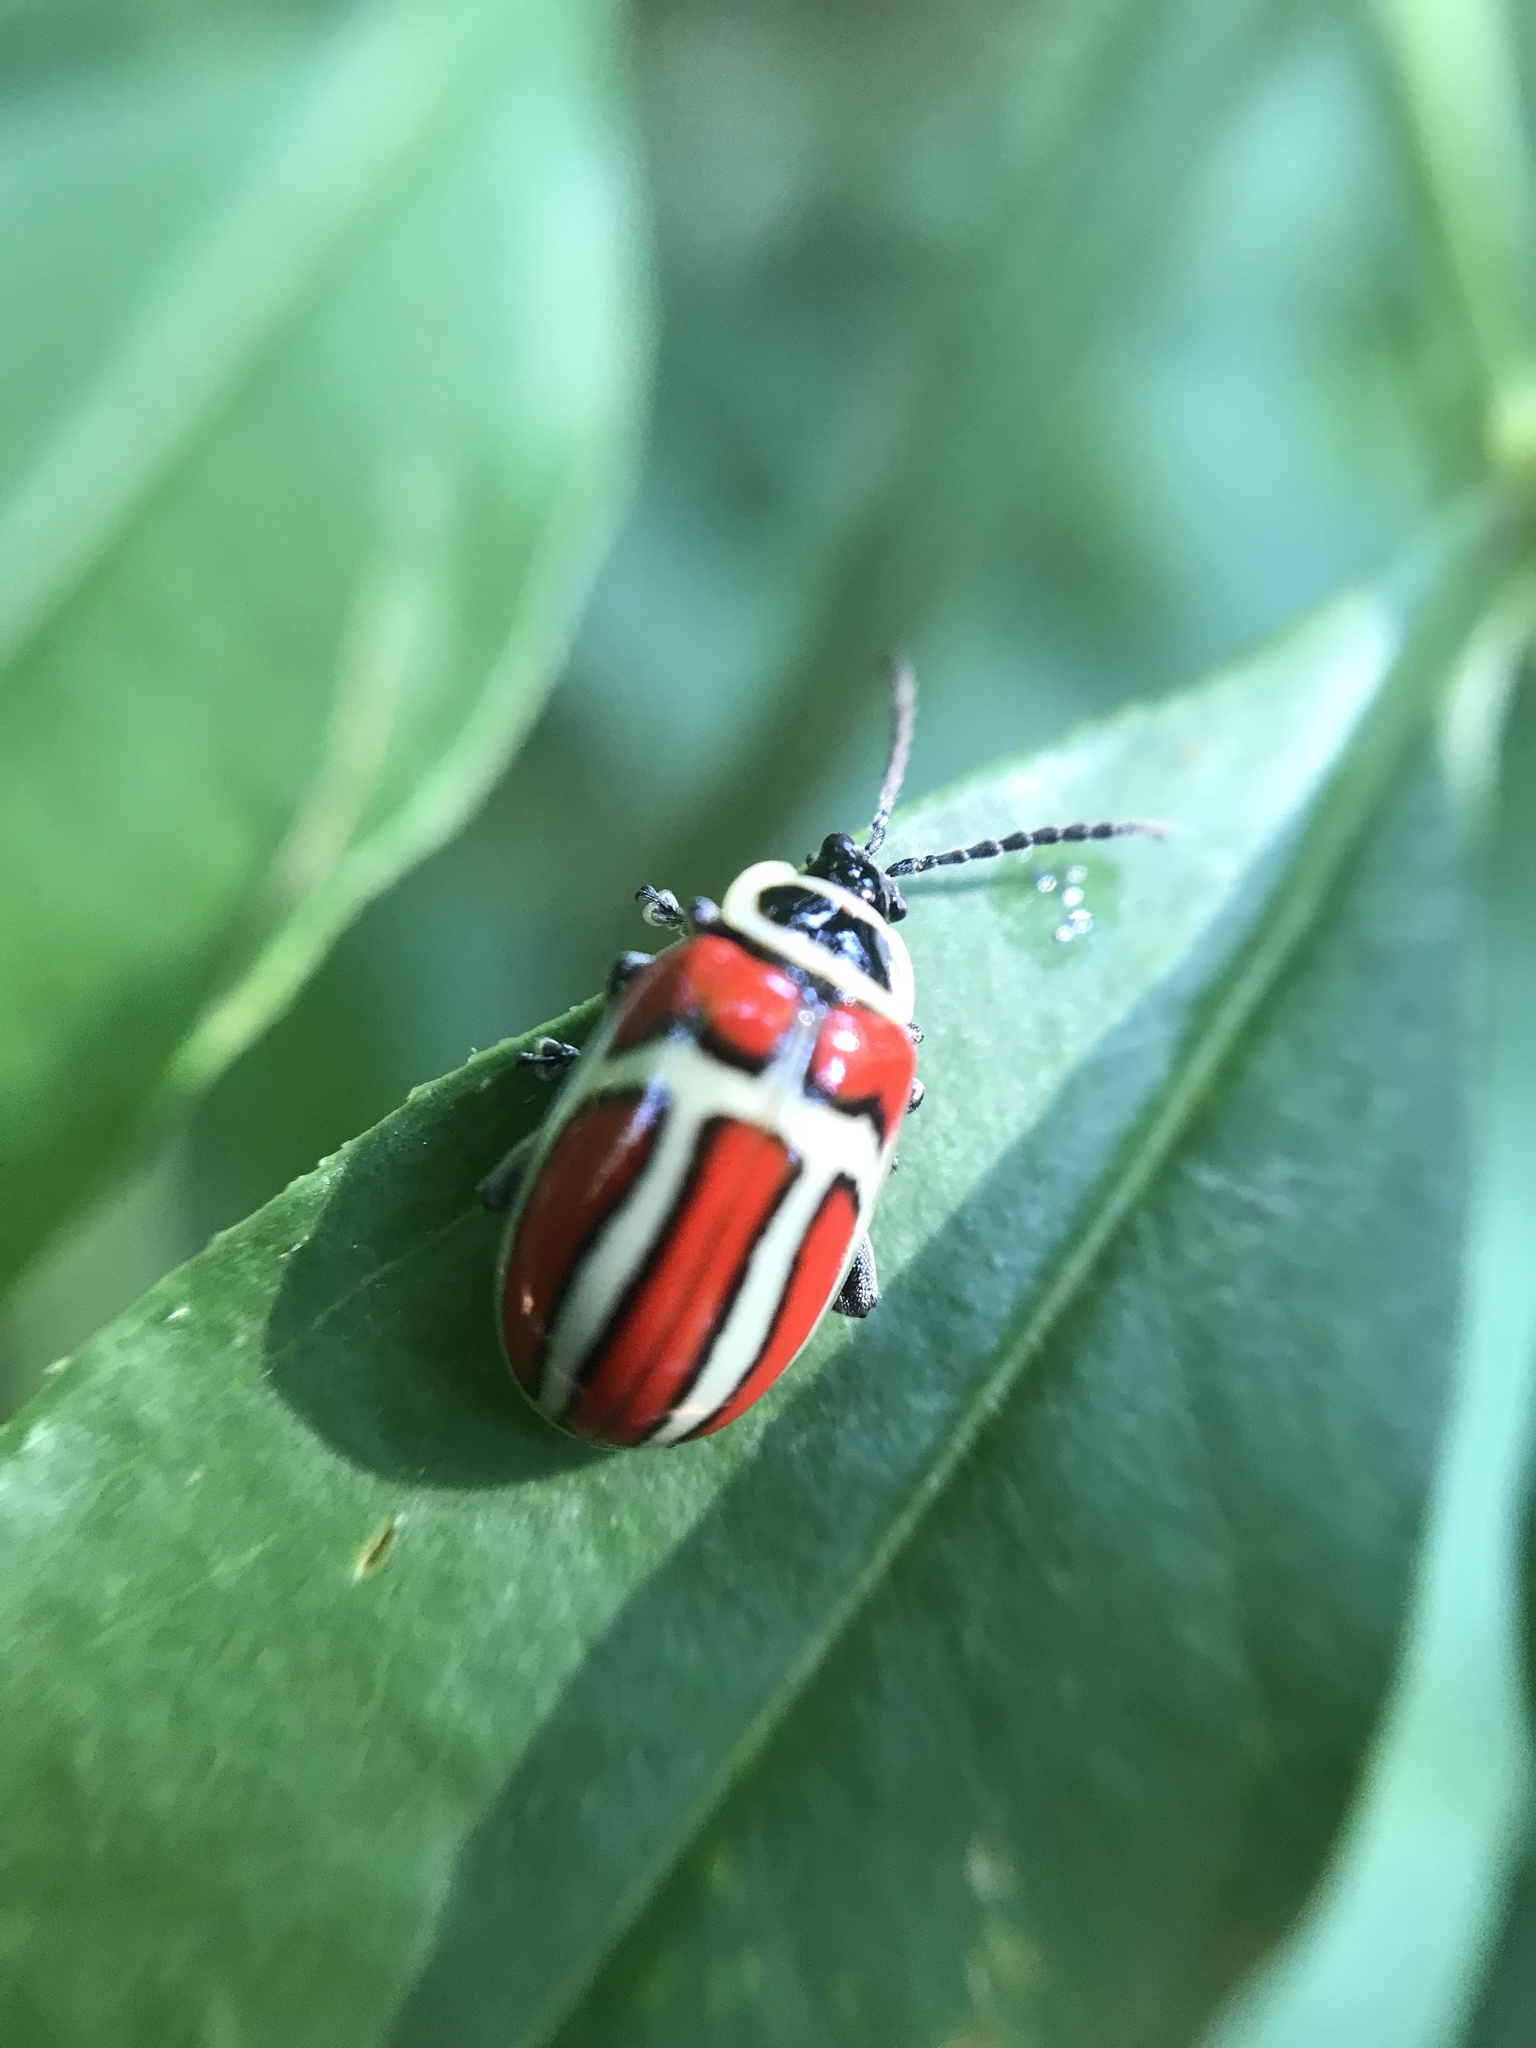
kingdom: Animalia
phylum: Arthropoda
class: Insecta
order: Coleoptera
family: Chrysomelidae
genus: Asphaera
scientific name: Asphaera
